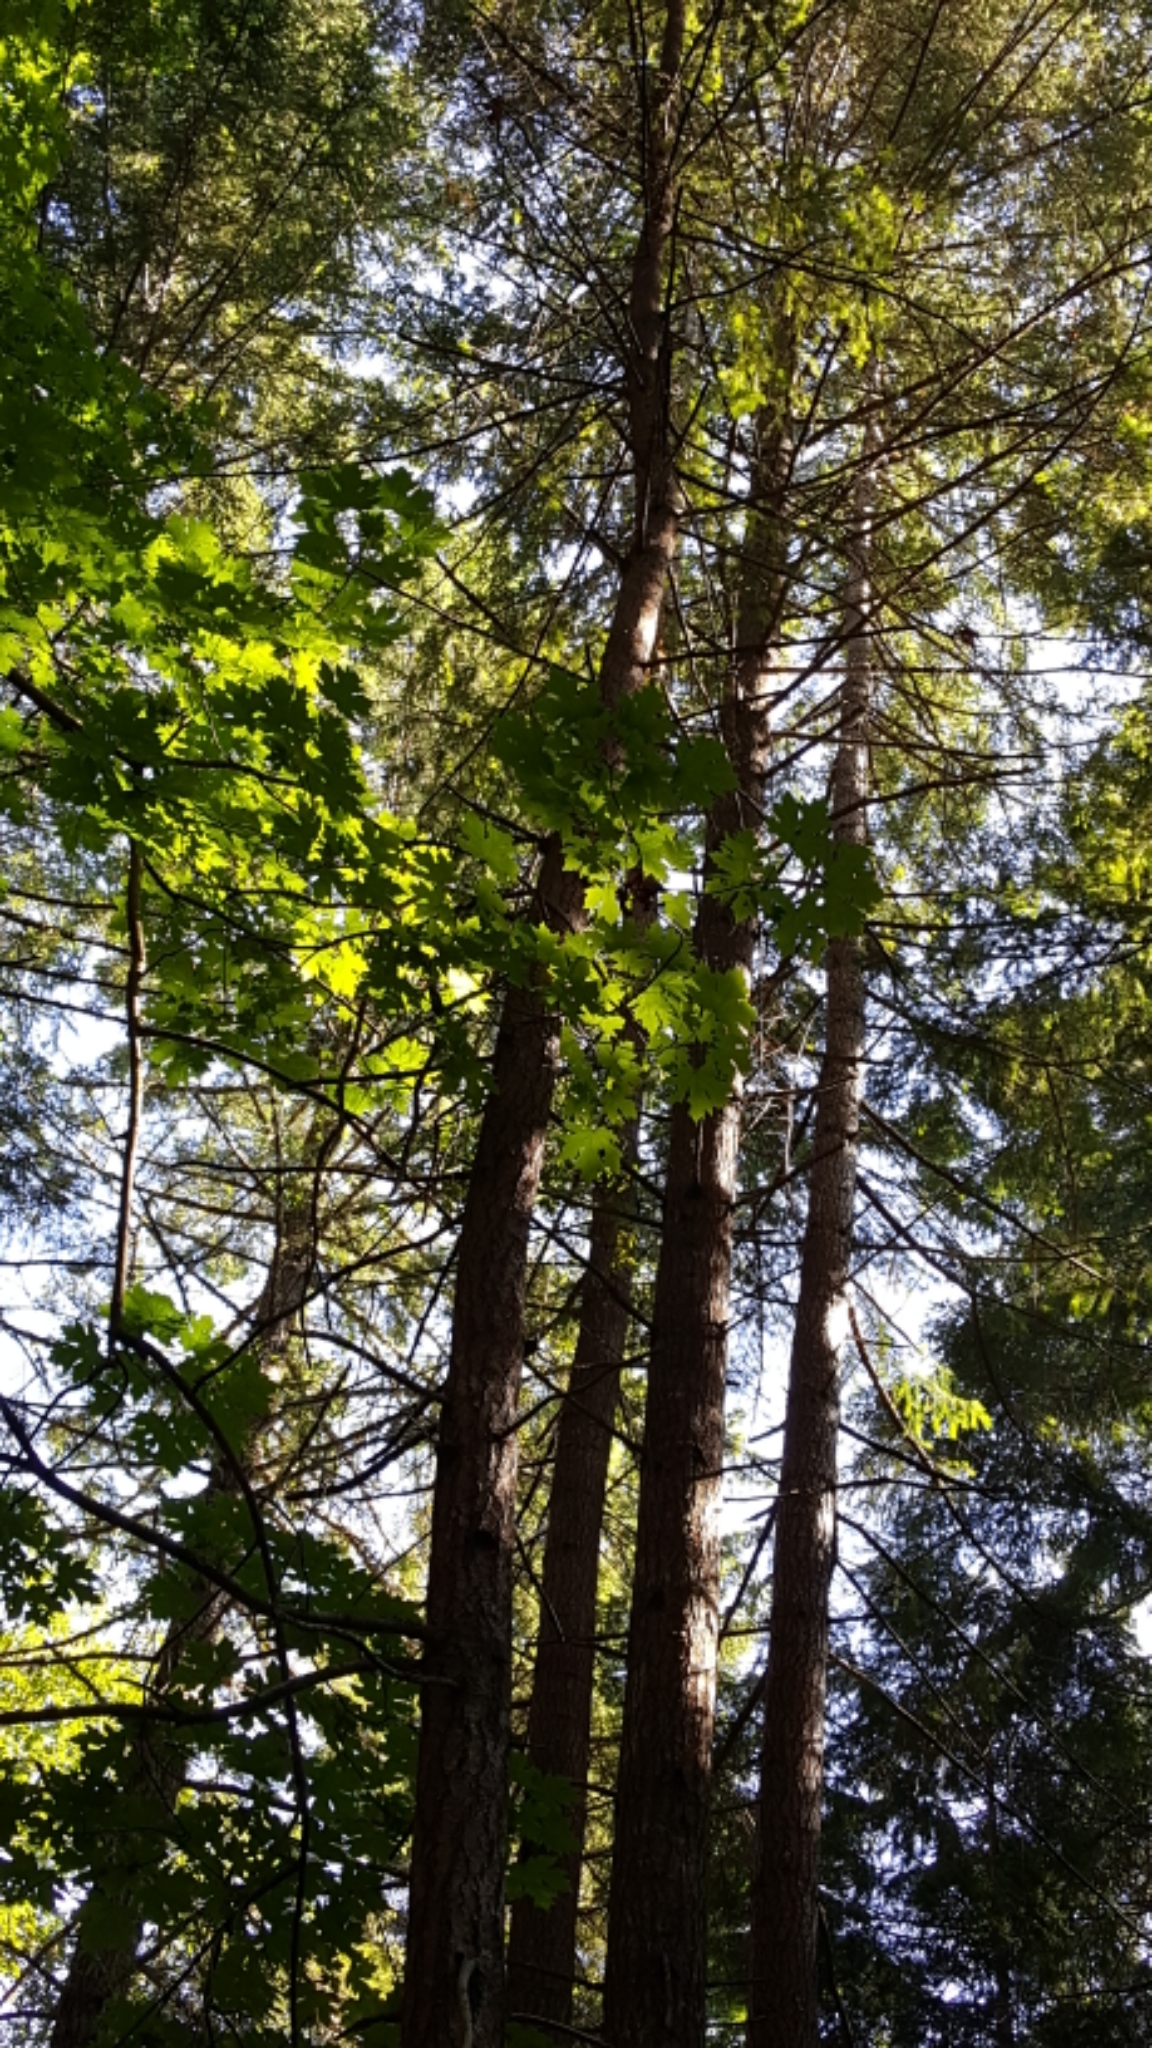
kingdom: Plantae
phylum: Tracheophyta
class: Magnoliopsida
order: Sapindales
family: Sapindaceae
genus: Acer
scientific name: Acer macrophyllum
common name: Oregon maple
